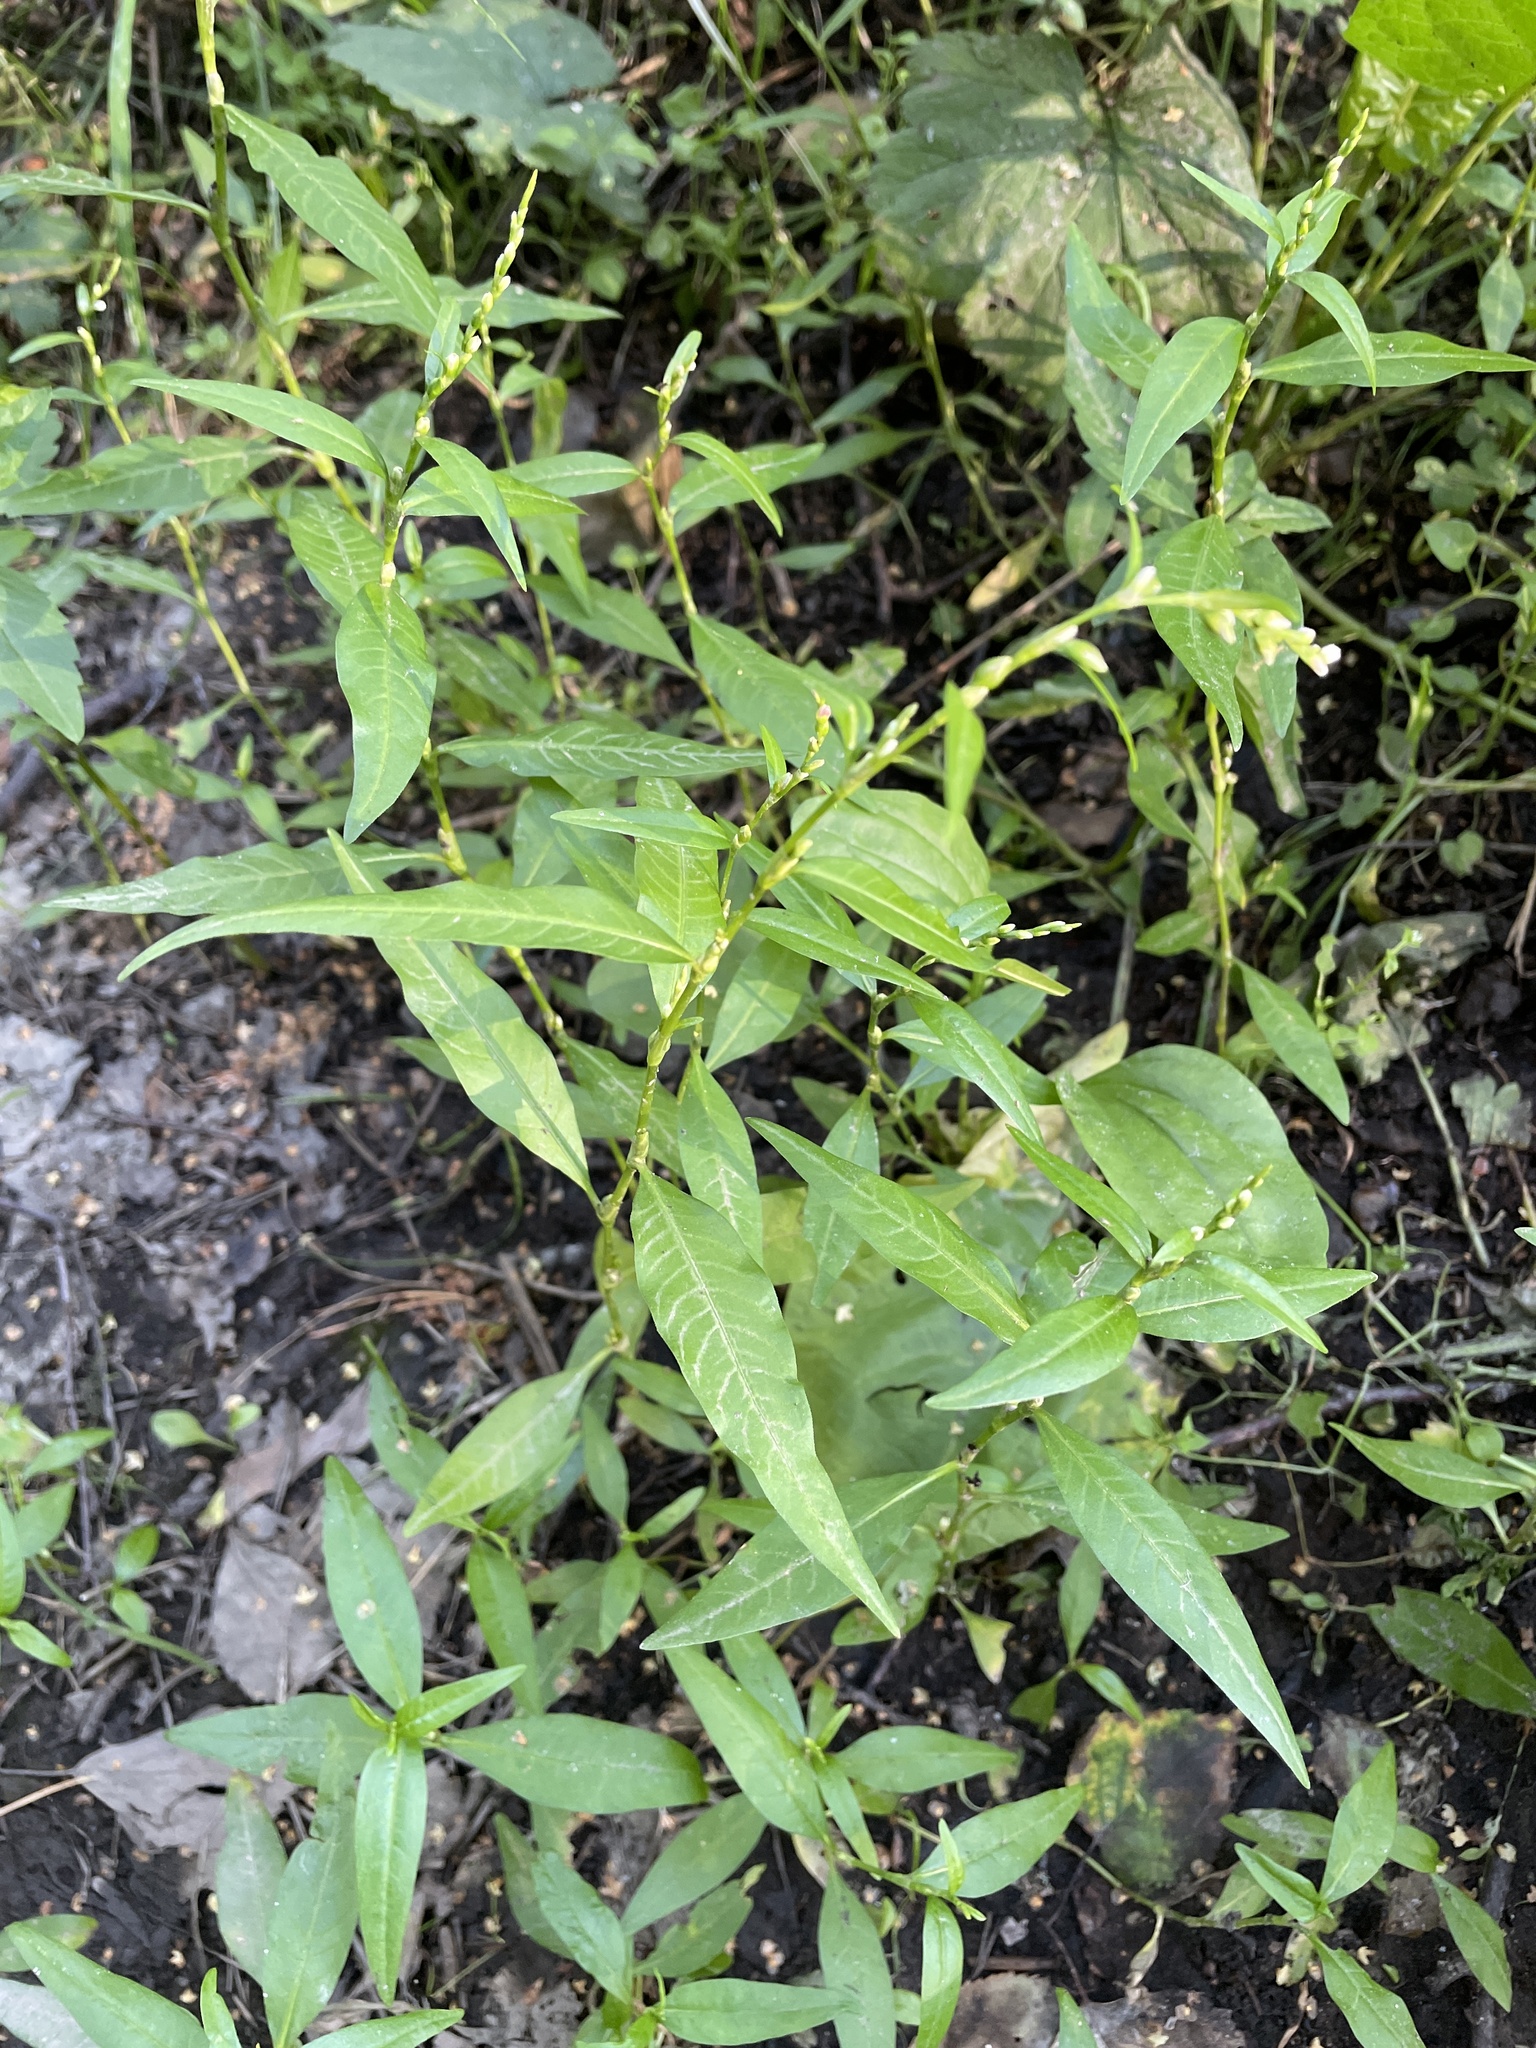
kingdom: Plantae
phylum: Tracheophyta
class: Magnoliopsida
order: Caryophyllales
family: Polygonaceae
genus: Persicaria
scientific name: Persicaria hydropiper
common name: Water-pepper
